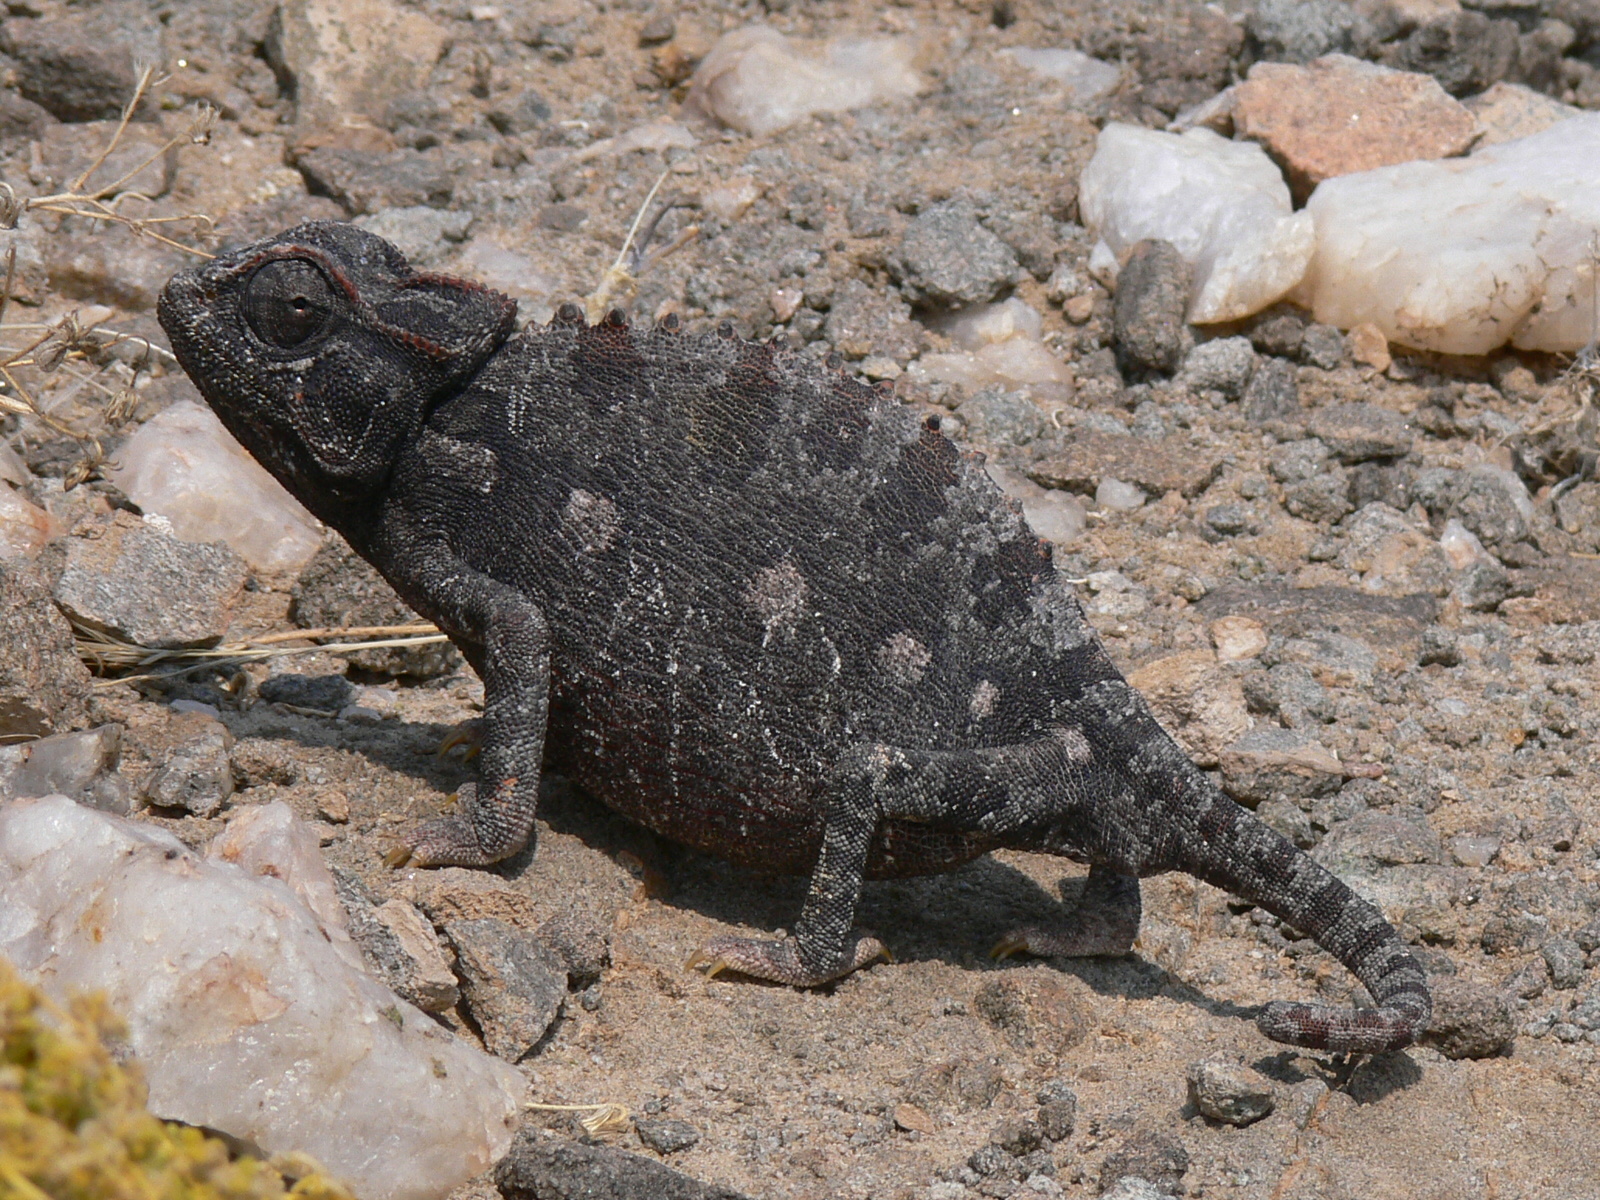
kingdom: Animalia
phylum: Chordata
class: Squamata
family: Chamaeleonidae
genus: Chamaeleo
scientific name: Chamaeleo namaquensis
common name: Namaqua chameleon
